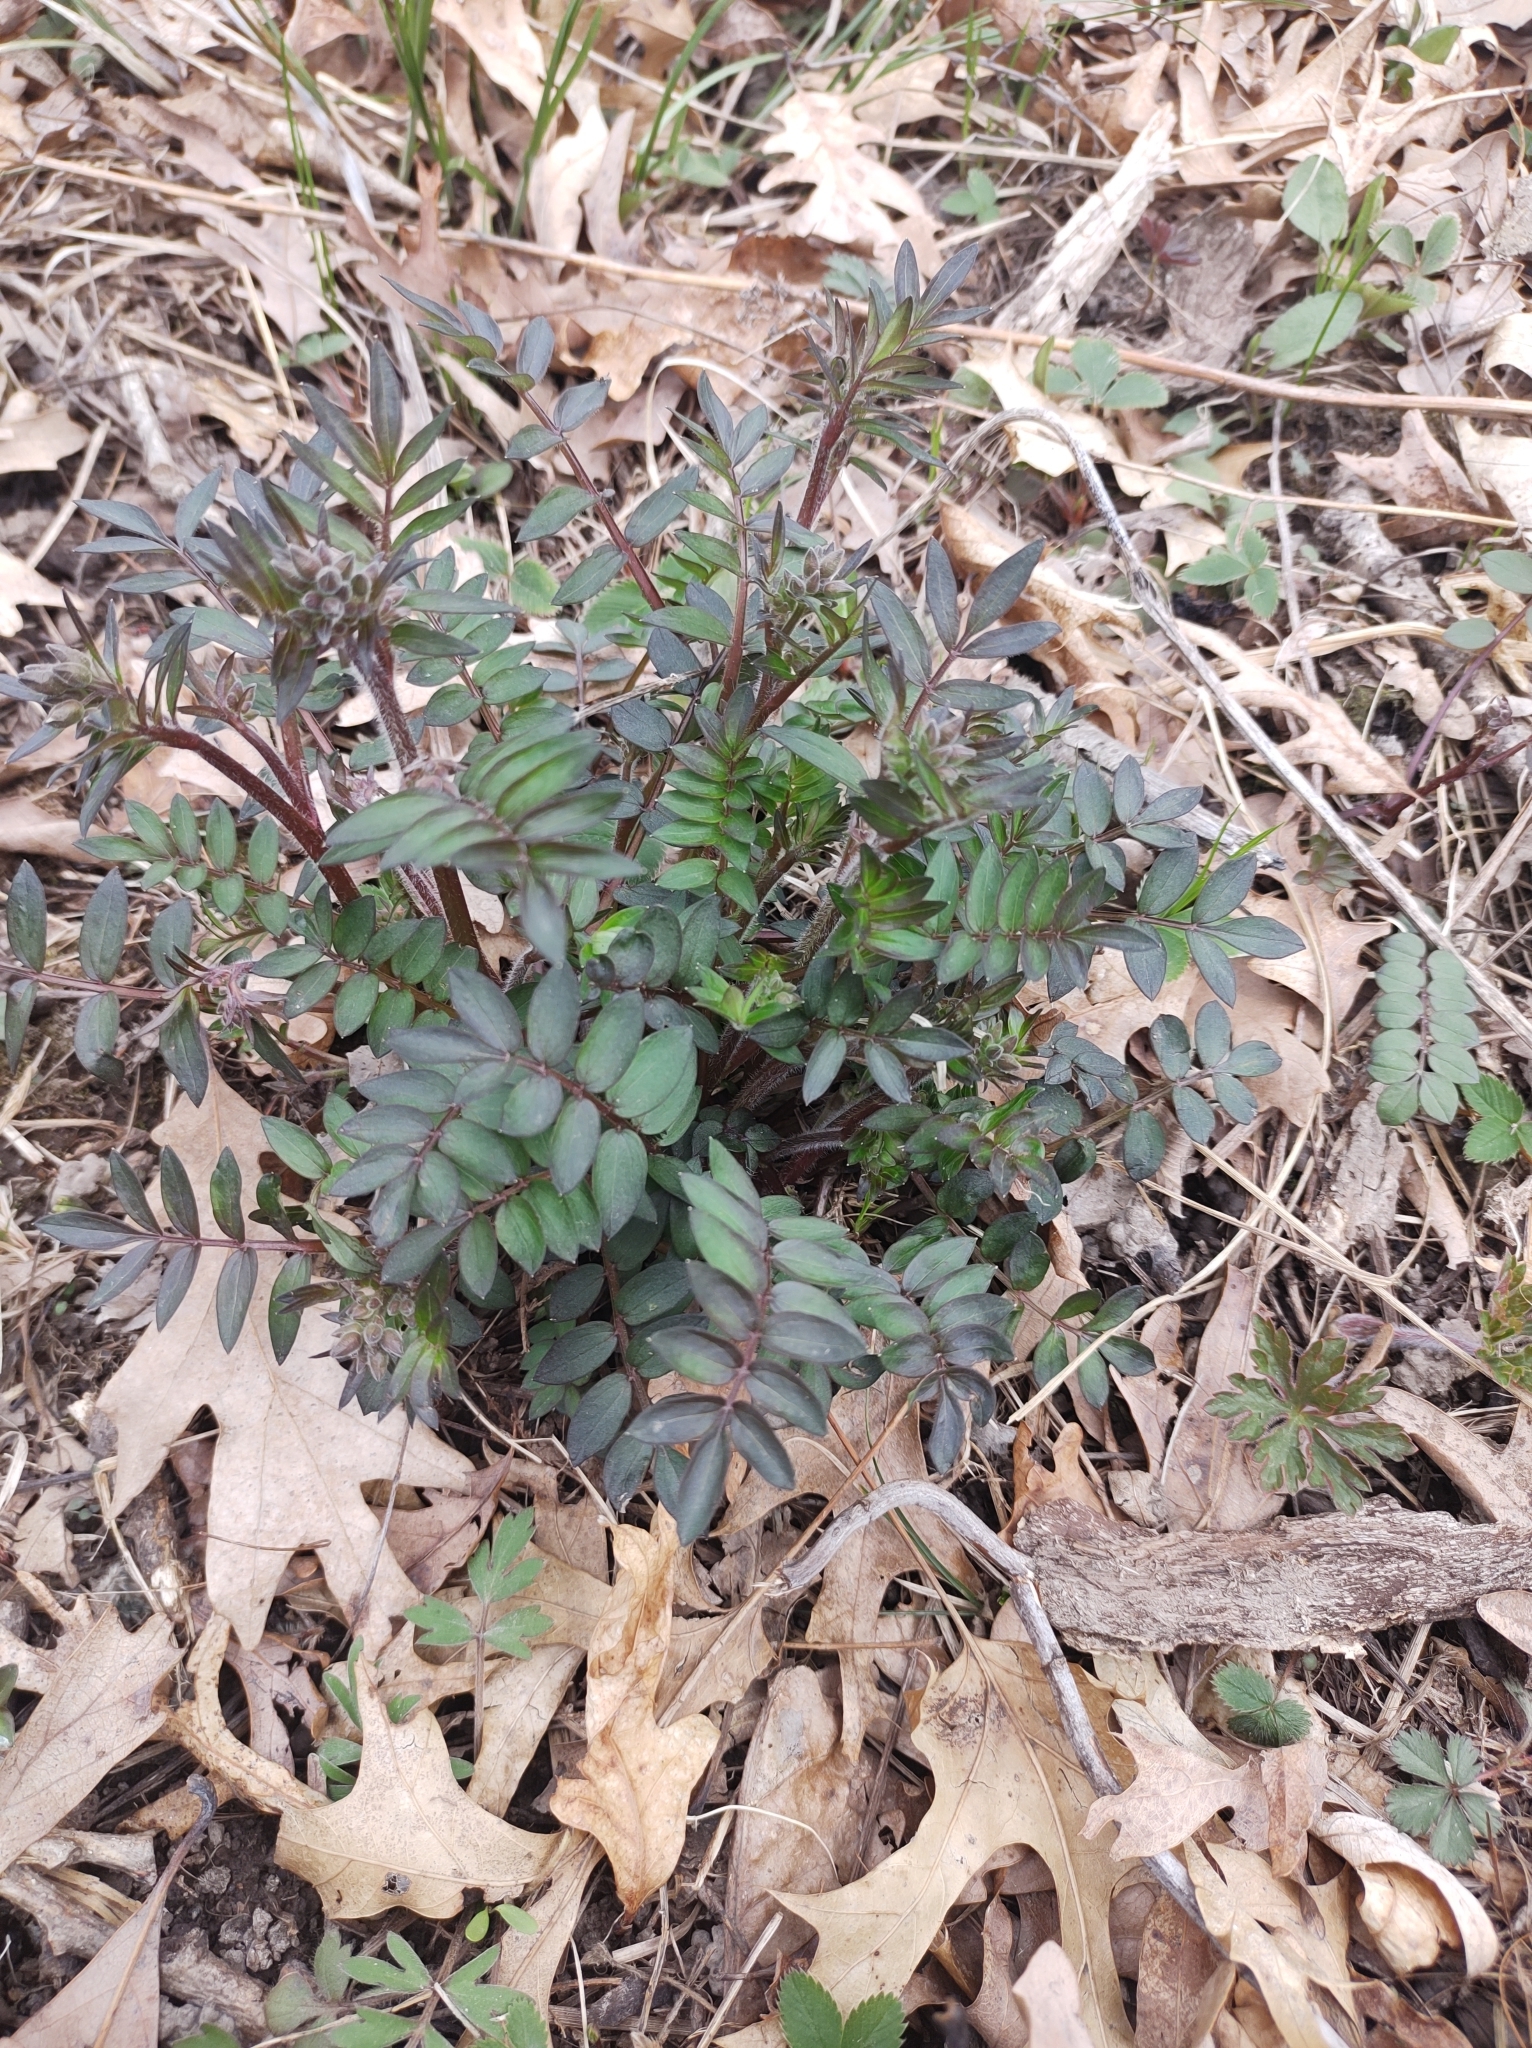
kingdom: Plantae
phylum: Tracheophyta
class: Magnoliopsida
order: Ericales
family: Polemoniaceae
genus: Polemonium
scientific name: Polemonium reptans
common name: Creeping jacob's-ladder
